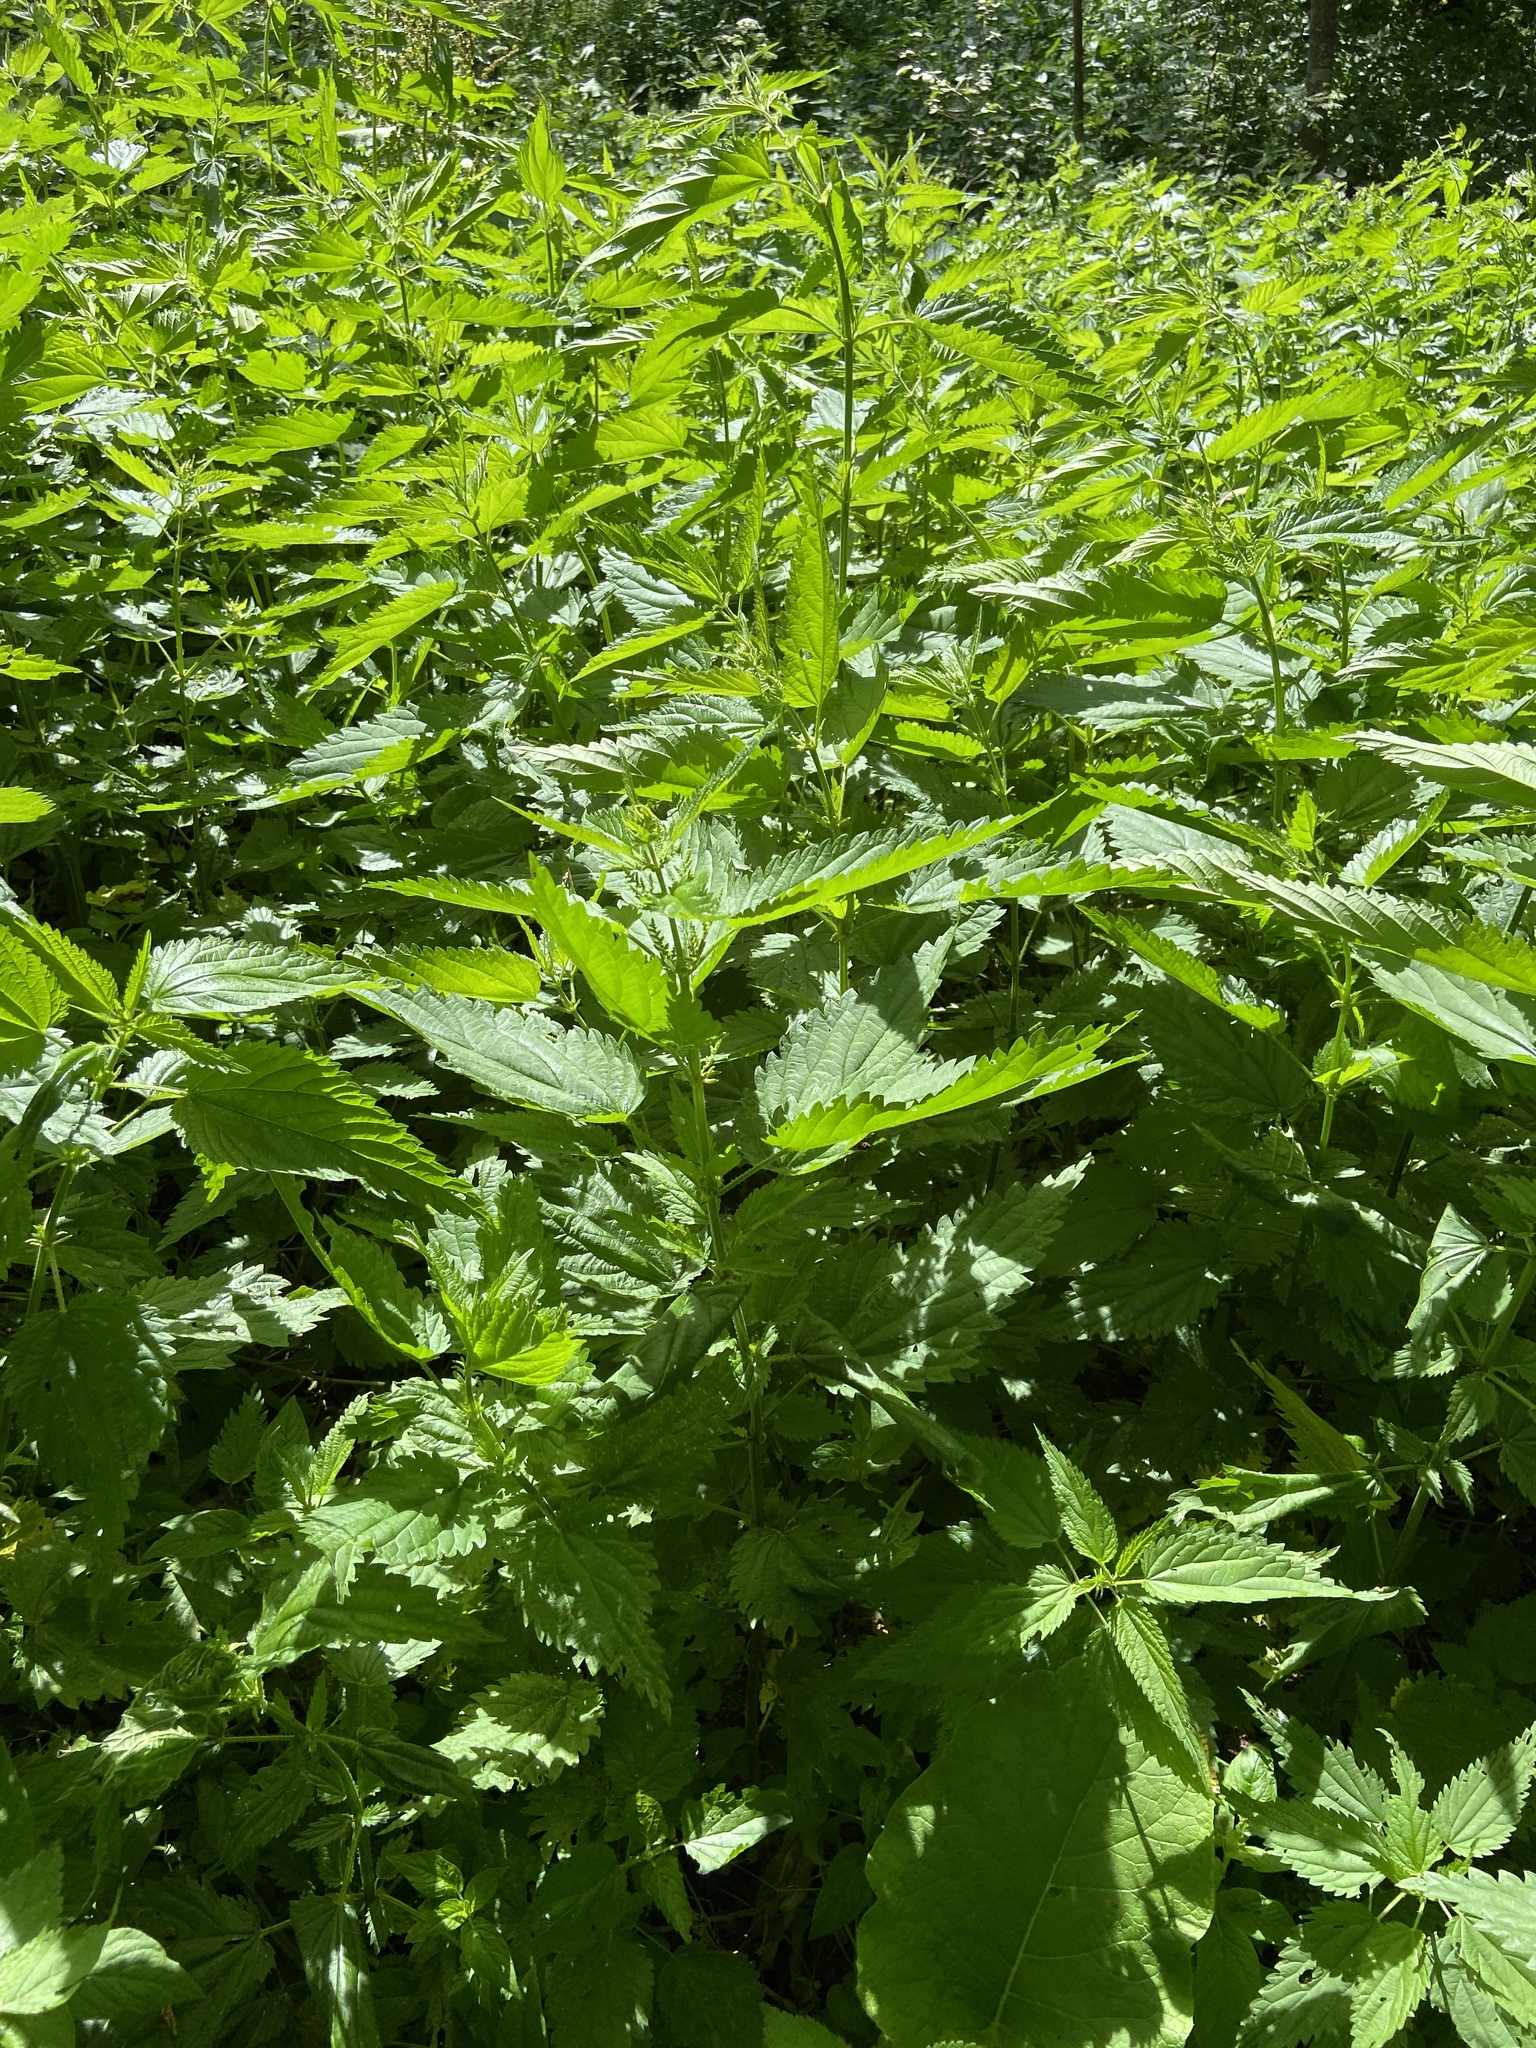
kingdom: Plantae
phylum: Tracheophyta
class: Magnoliopsida
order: Rosales
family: Urticaceae
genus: Urtica
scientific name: Urtica dioica
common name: Common nettle
